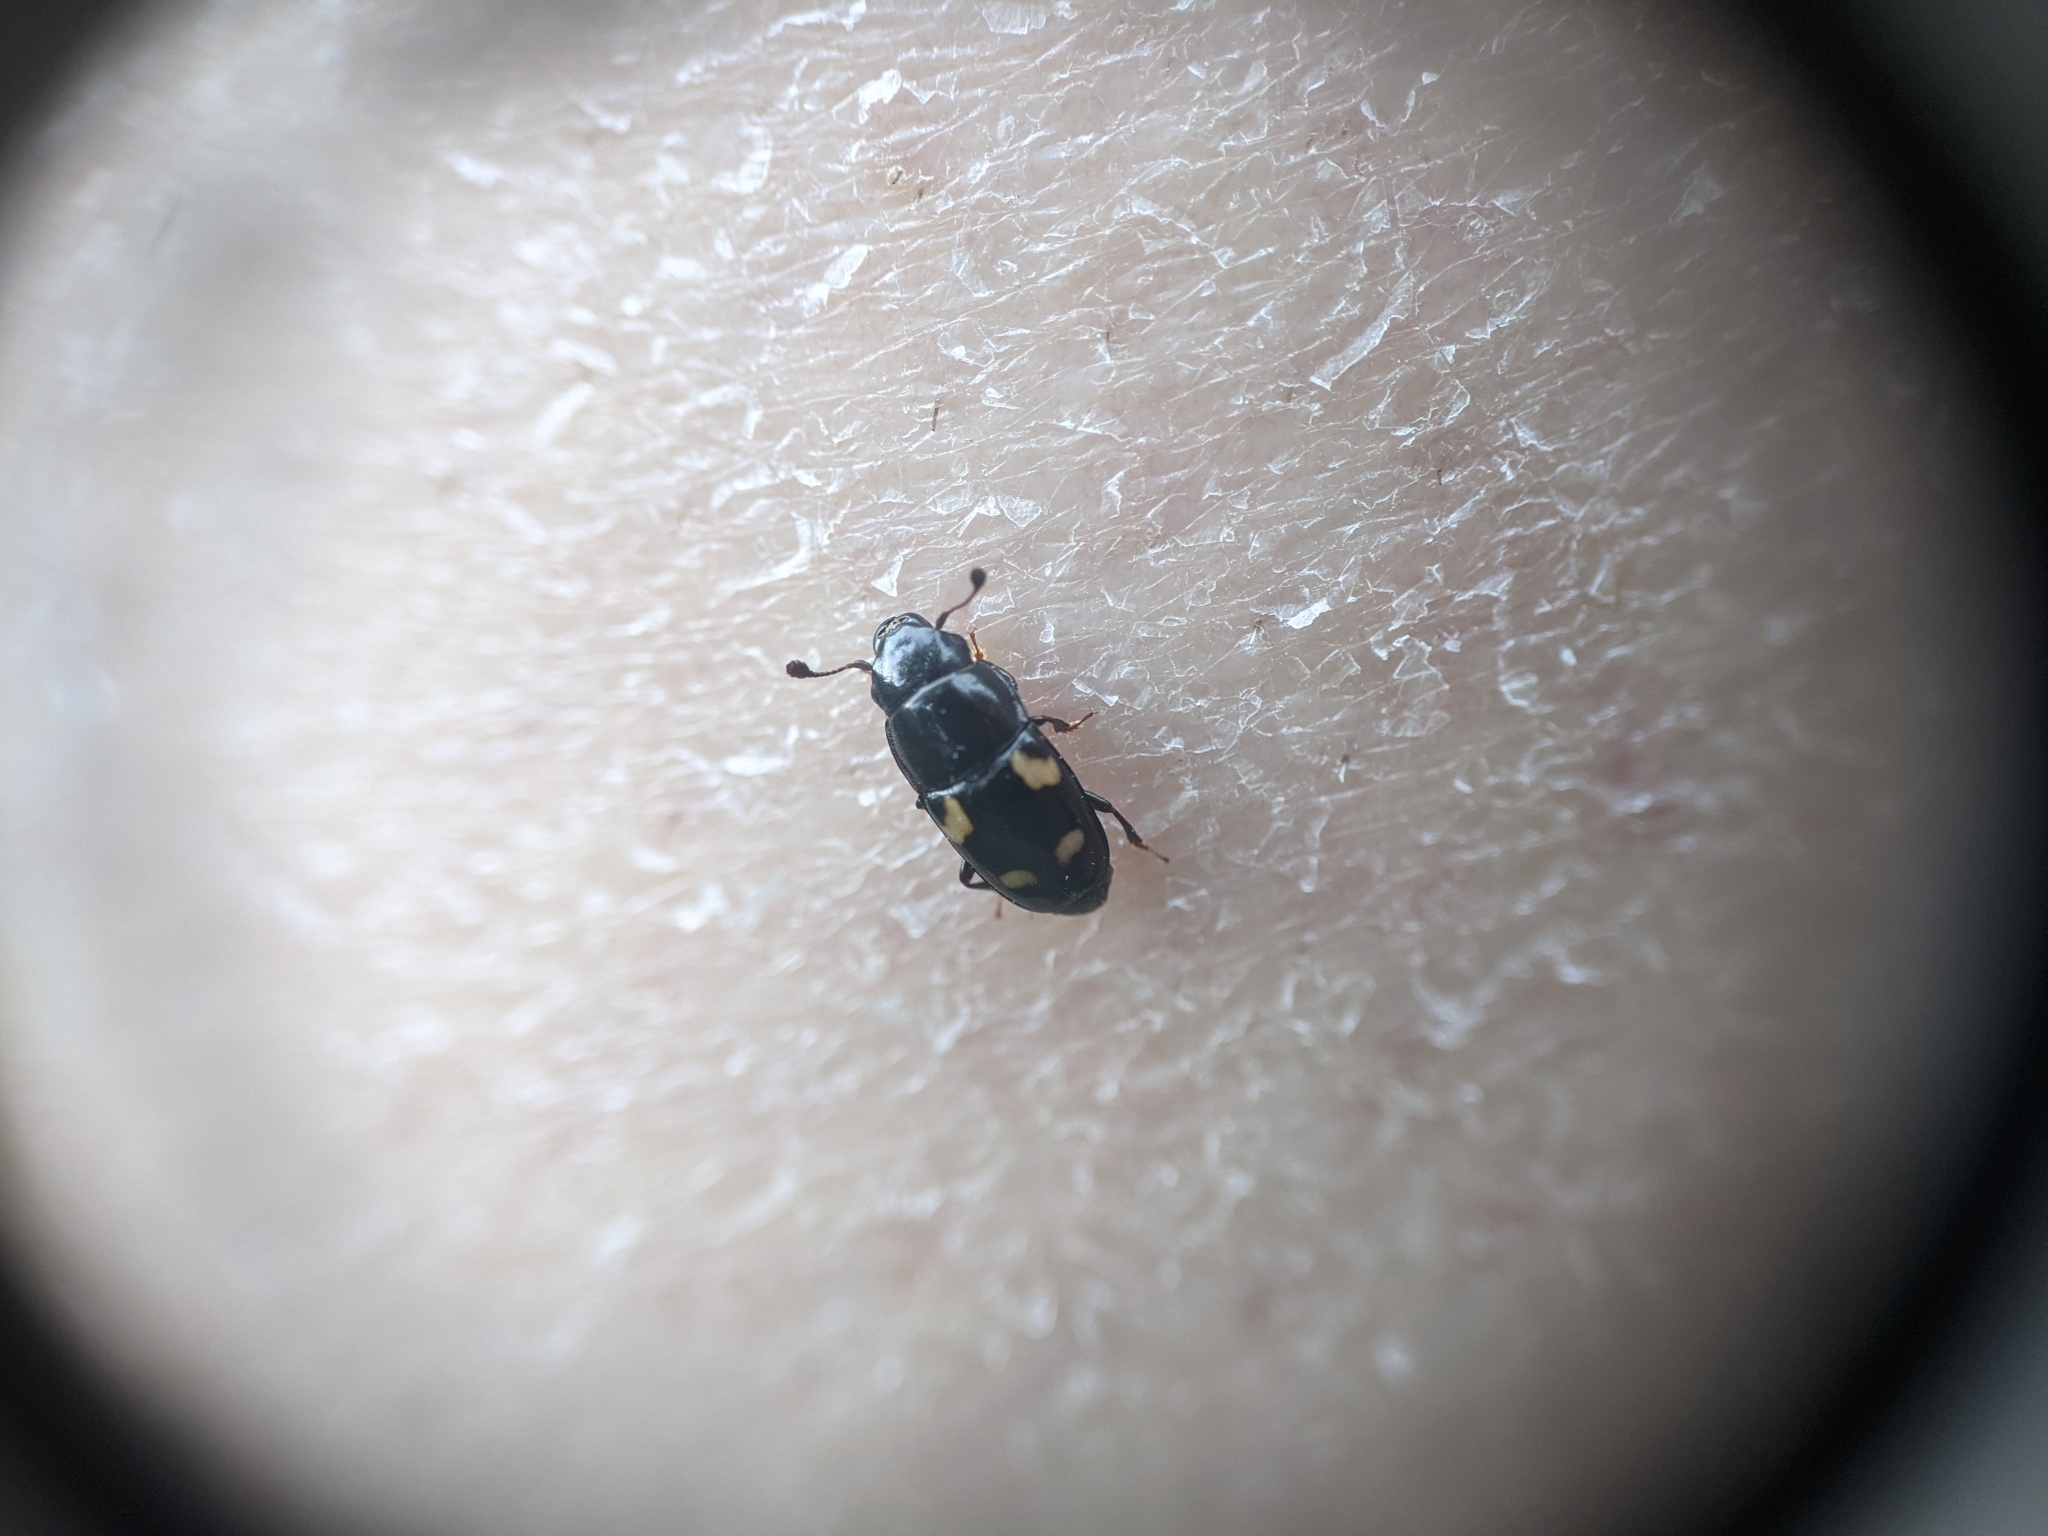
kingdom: Animalia
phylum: Arthropoda
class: Insecta
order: Coleoptera
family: Nitidulidae
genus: Glischrochilus
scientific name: Glischrochilus quadrisignatus
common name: Picnic beetle
